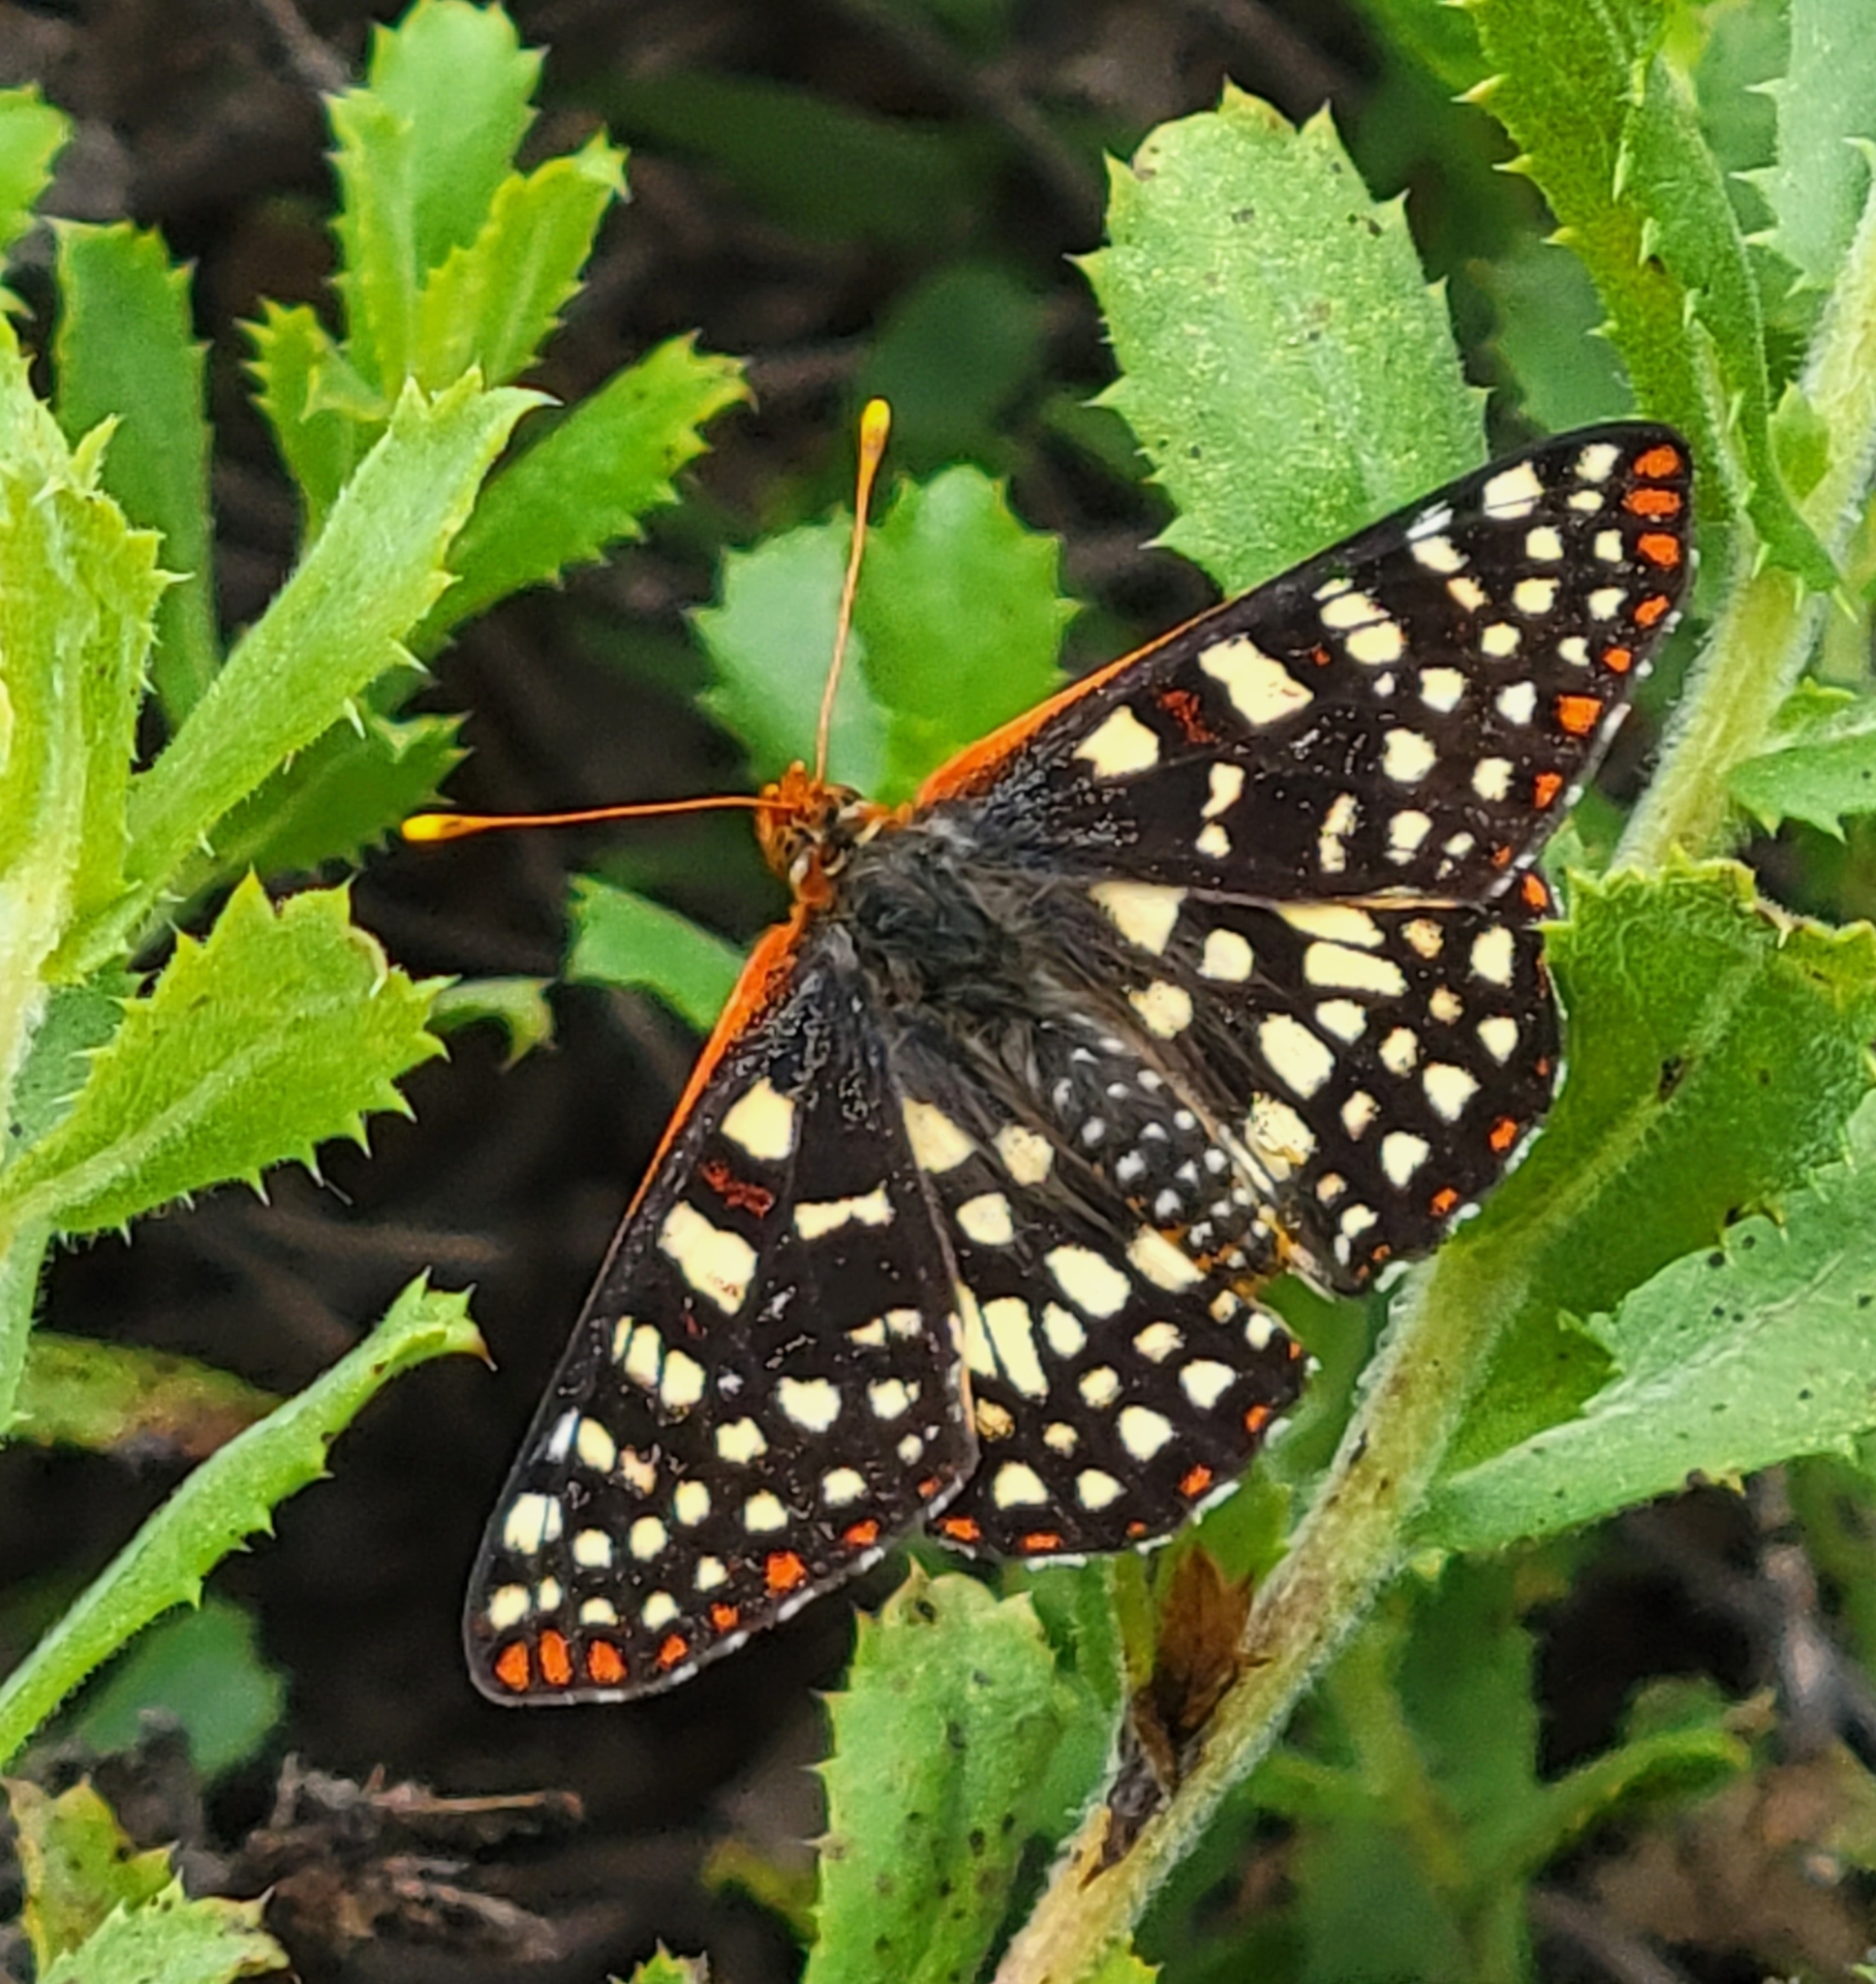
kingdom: Animalia
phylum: Arthropoda
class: Insecta
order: Lepidoptera
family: Nymphalidae
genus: Occidryas
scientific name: Occidryas chalcedona
